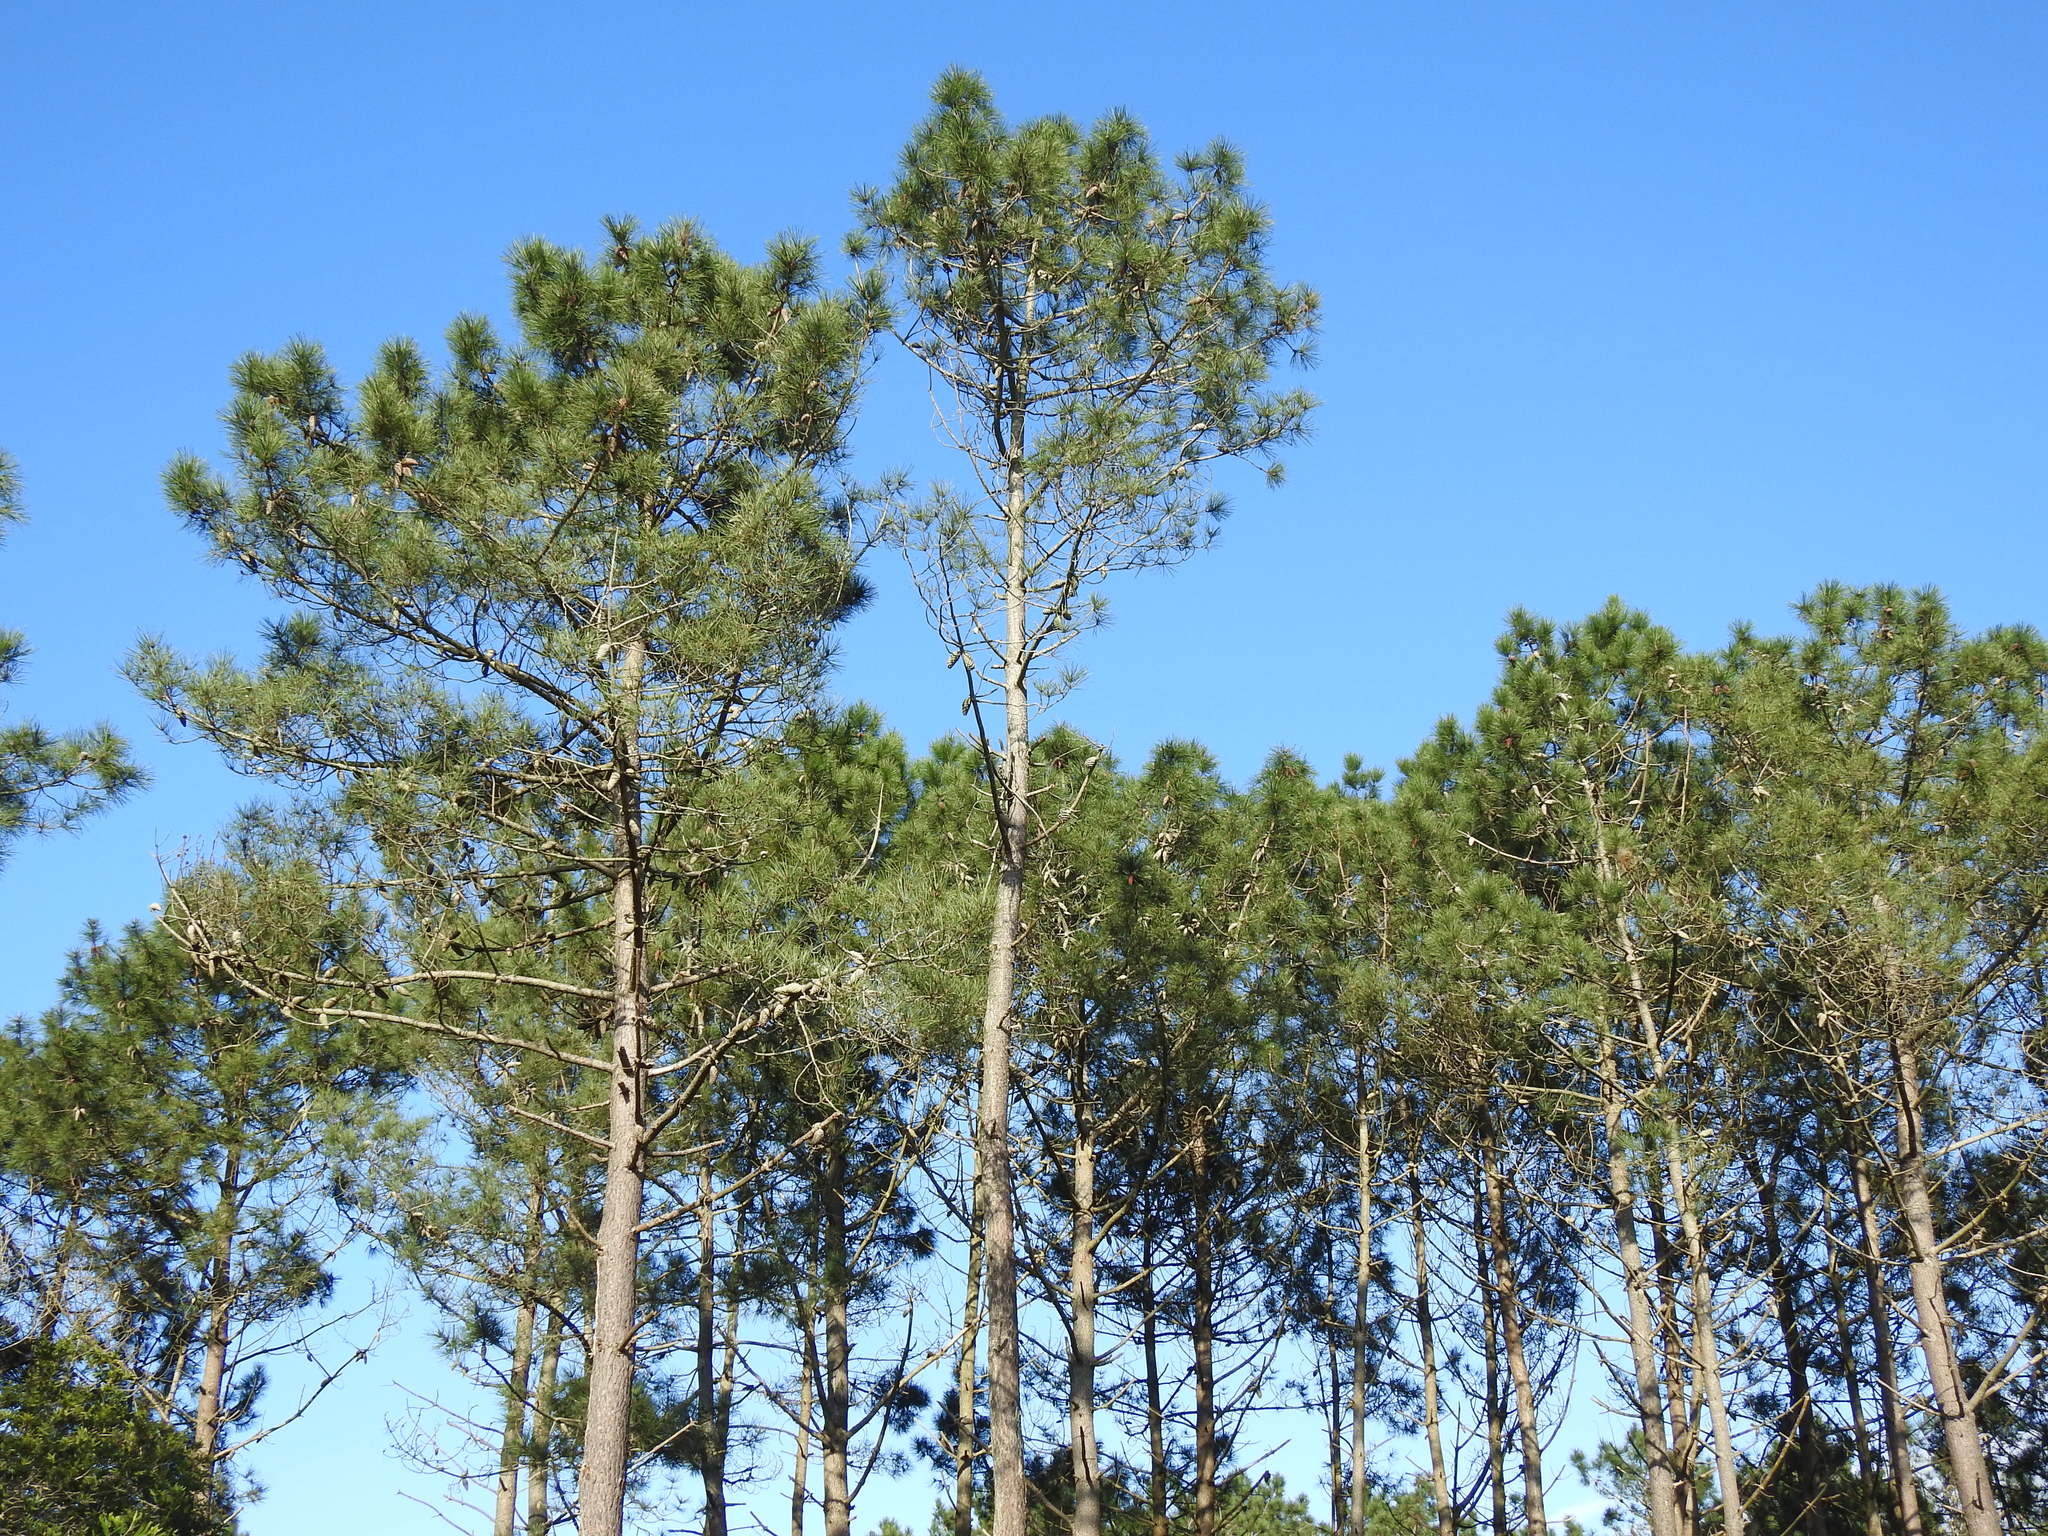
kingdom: Plantae
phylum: Tracheophyta
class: Pinopsida
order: Pinales
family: Pinaceae
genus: Pinus
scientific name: Pinus pinaster
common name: Maritime pine
